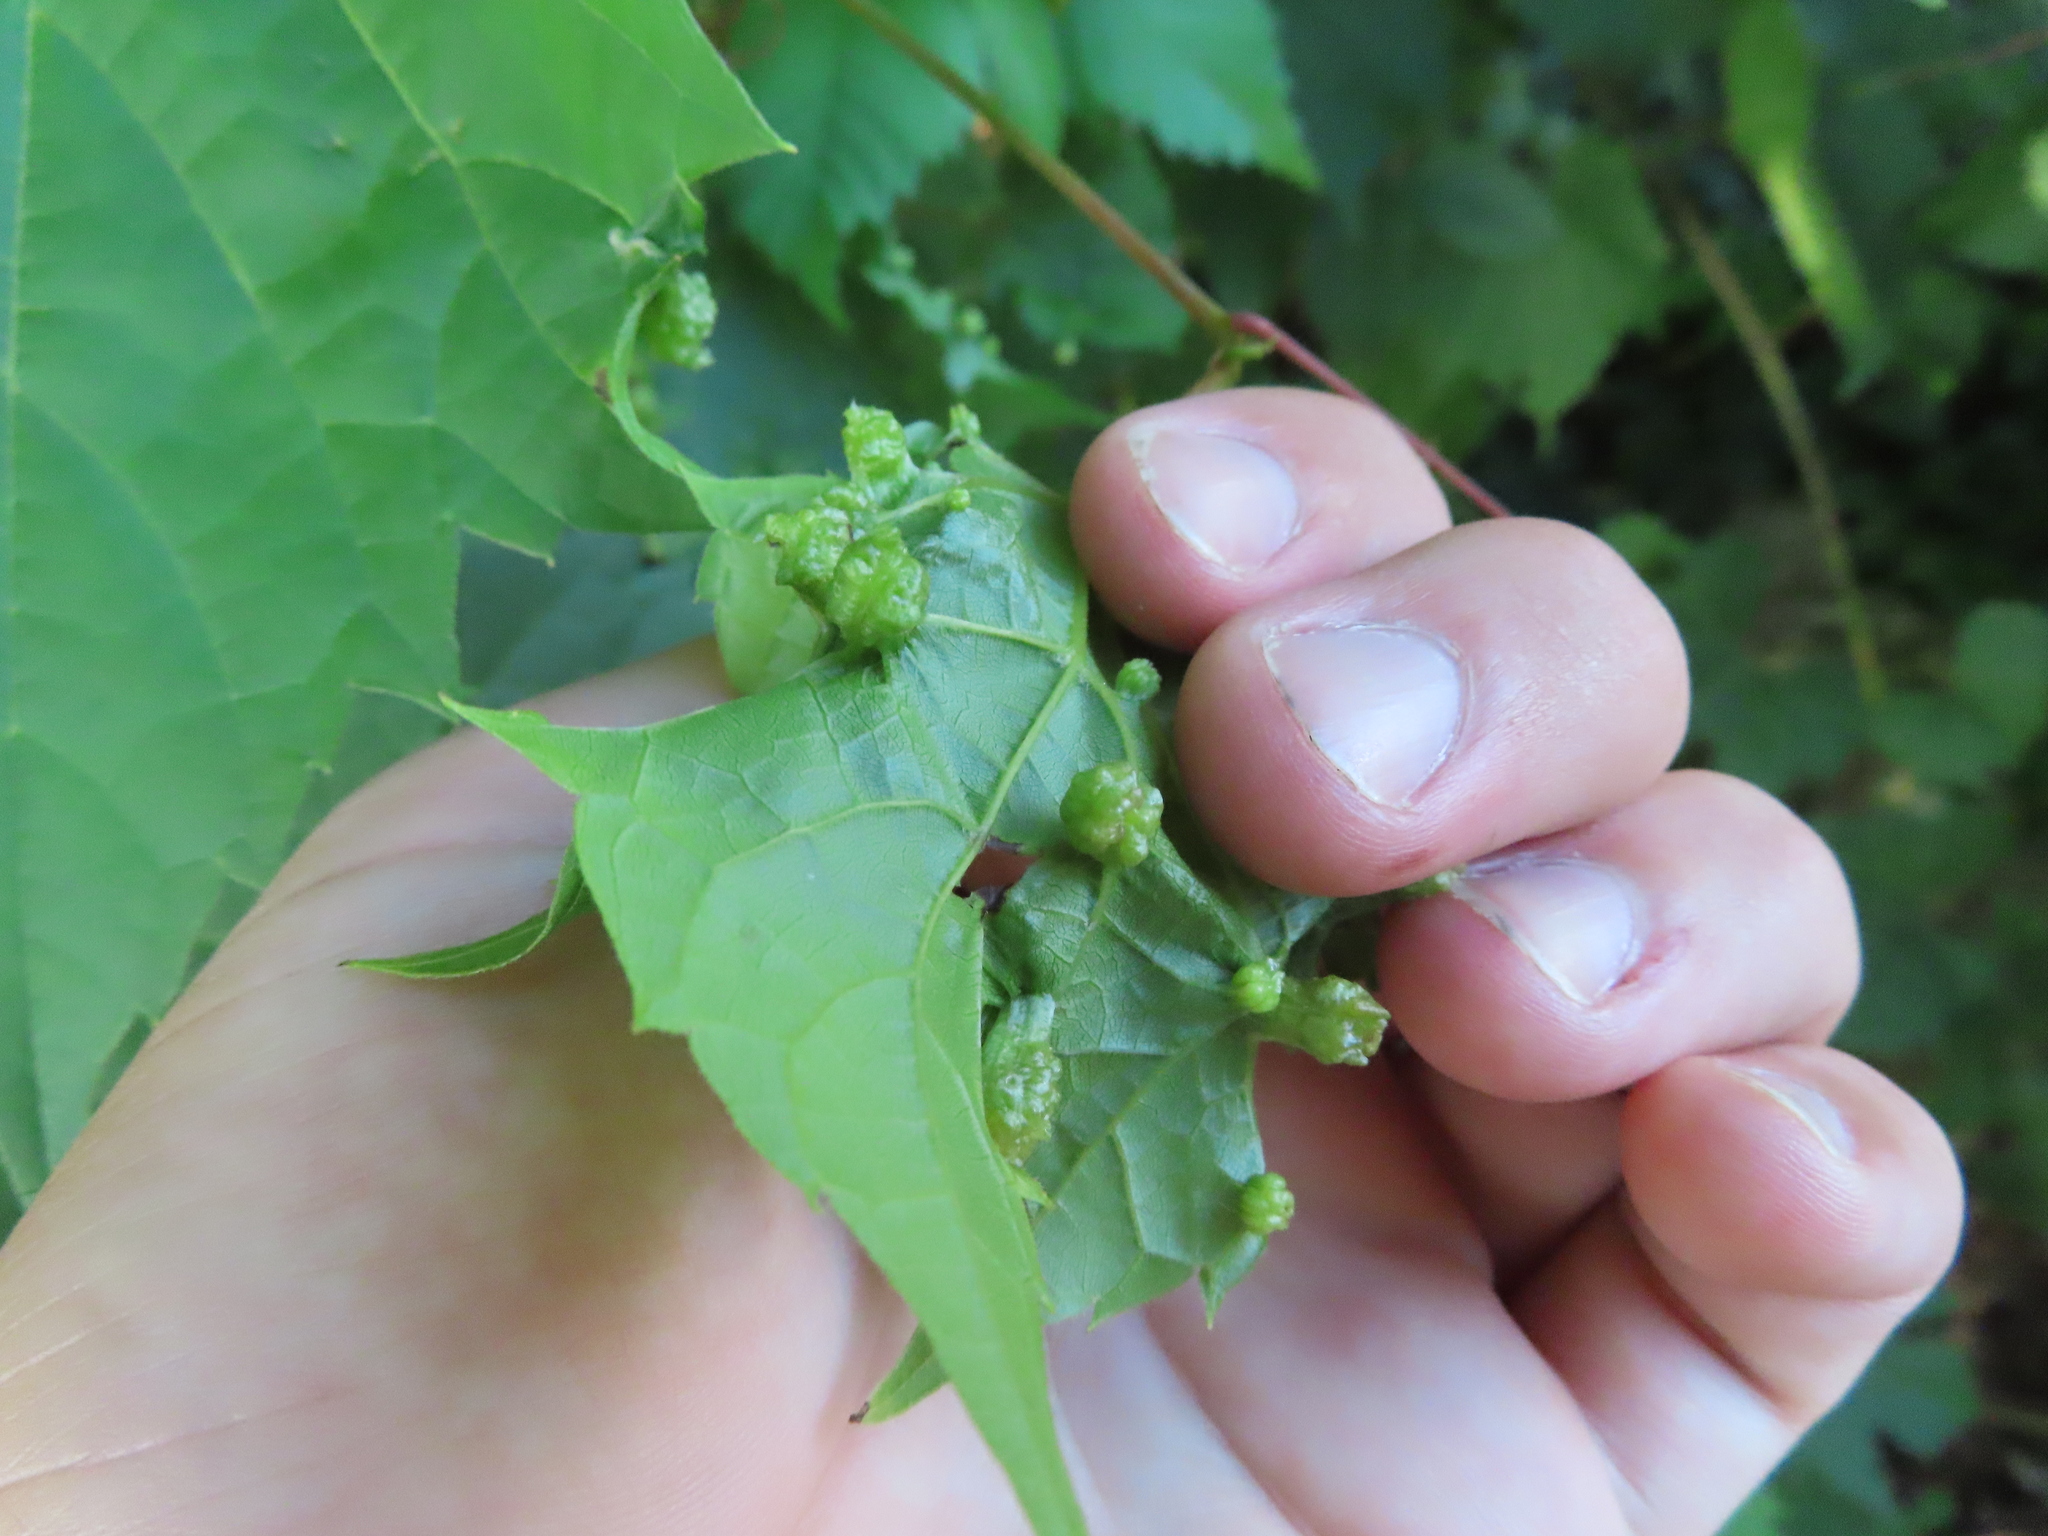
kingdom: Animalia
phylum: Arthropoda
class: Insecta
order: Hemiptera
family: Phylloxeridae
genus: Daktulosphaira
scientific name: Daktulosphaira vitifoliae
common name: Grape phylloxera
